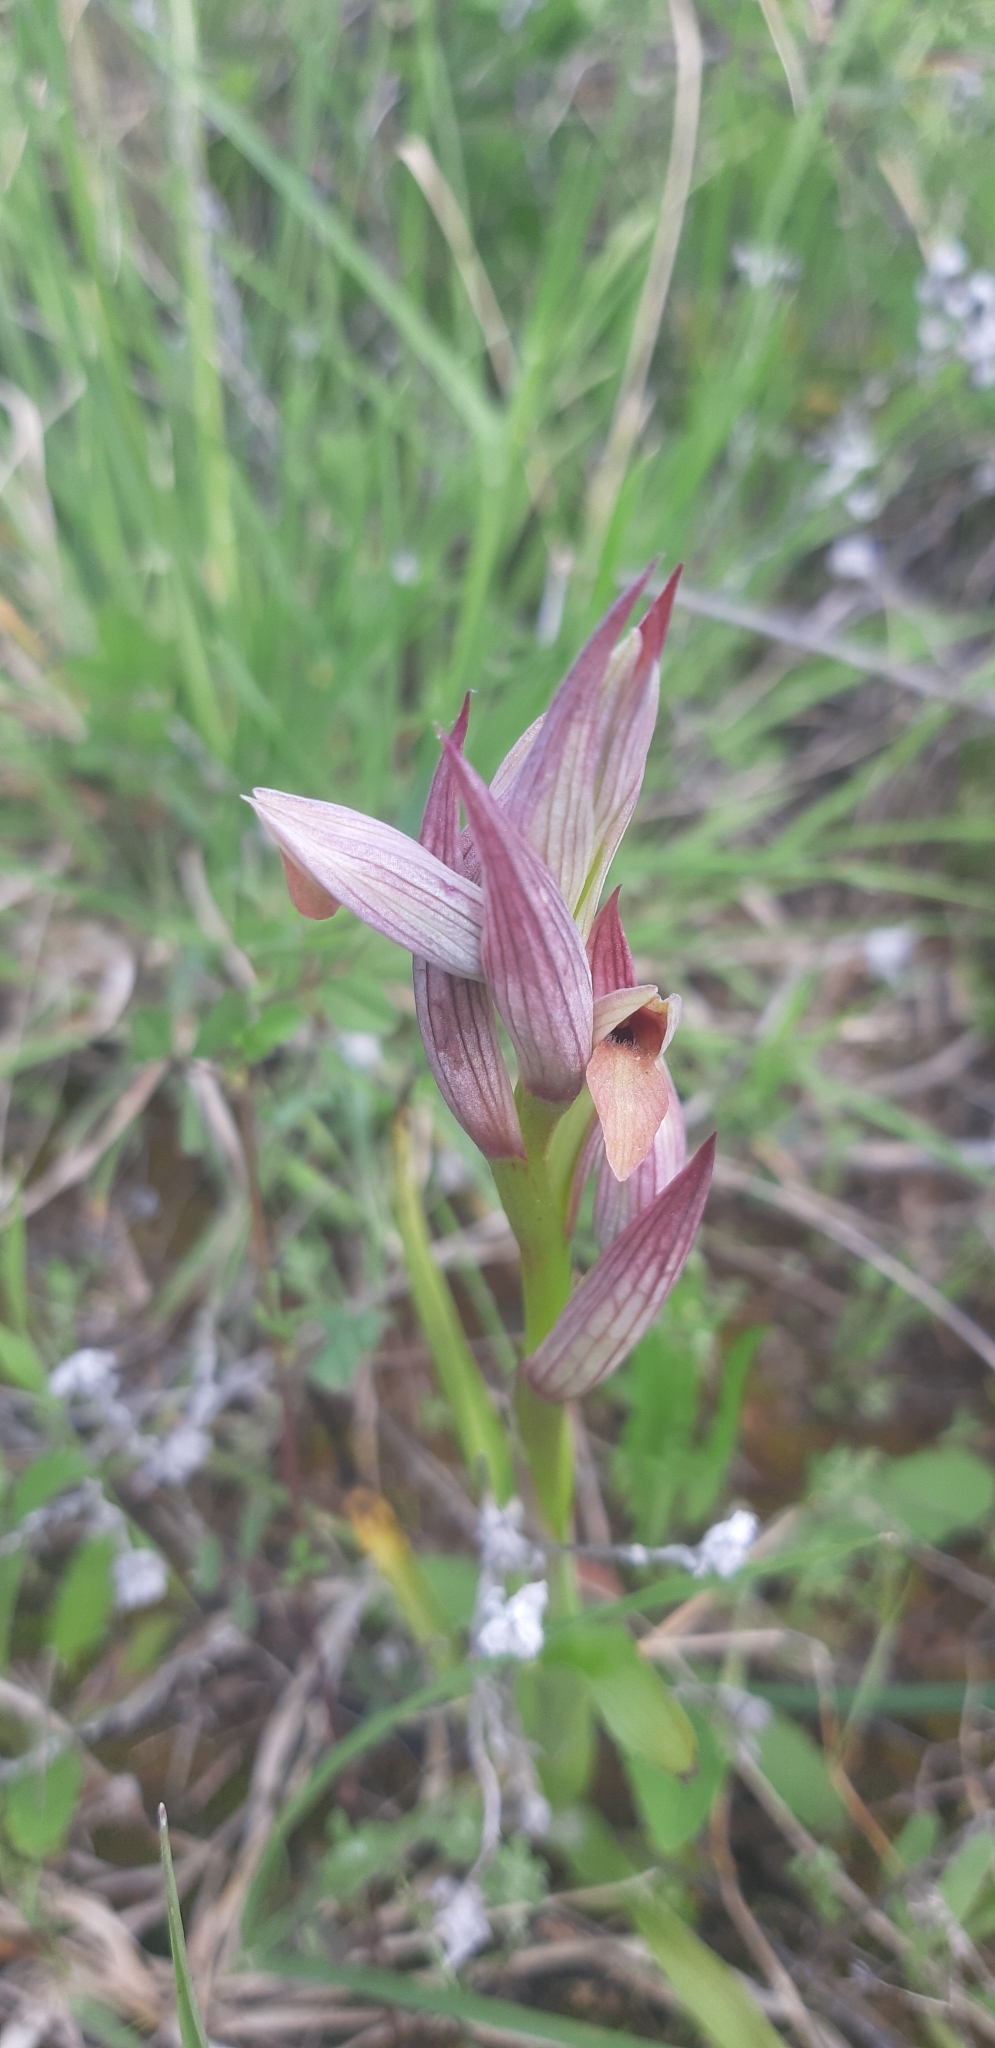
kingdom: Plantae
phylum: Tracheophyta
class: Liliopsida
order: Asparagales
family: Orchidaceae
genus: Serapias
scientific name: Serapias parviflora
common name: Small-flowered tongue-orchid
